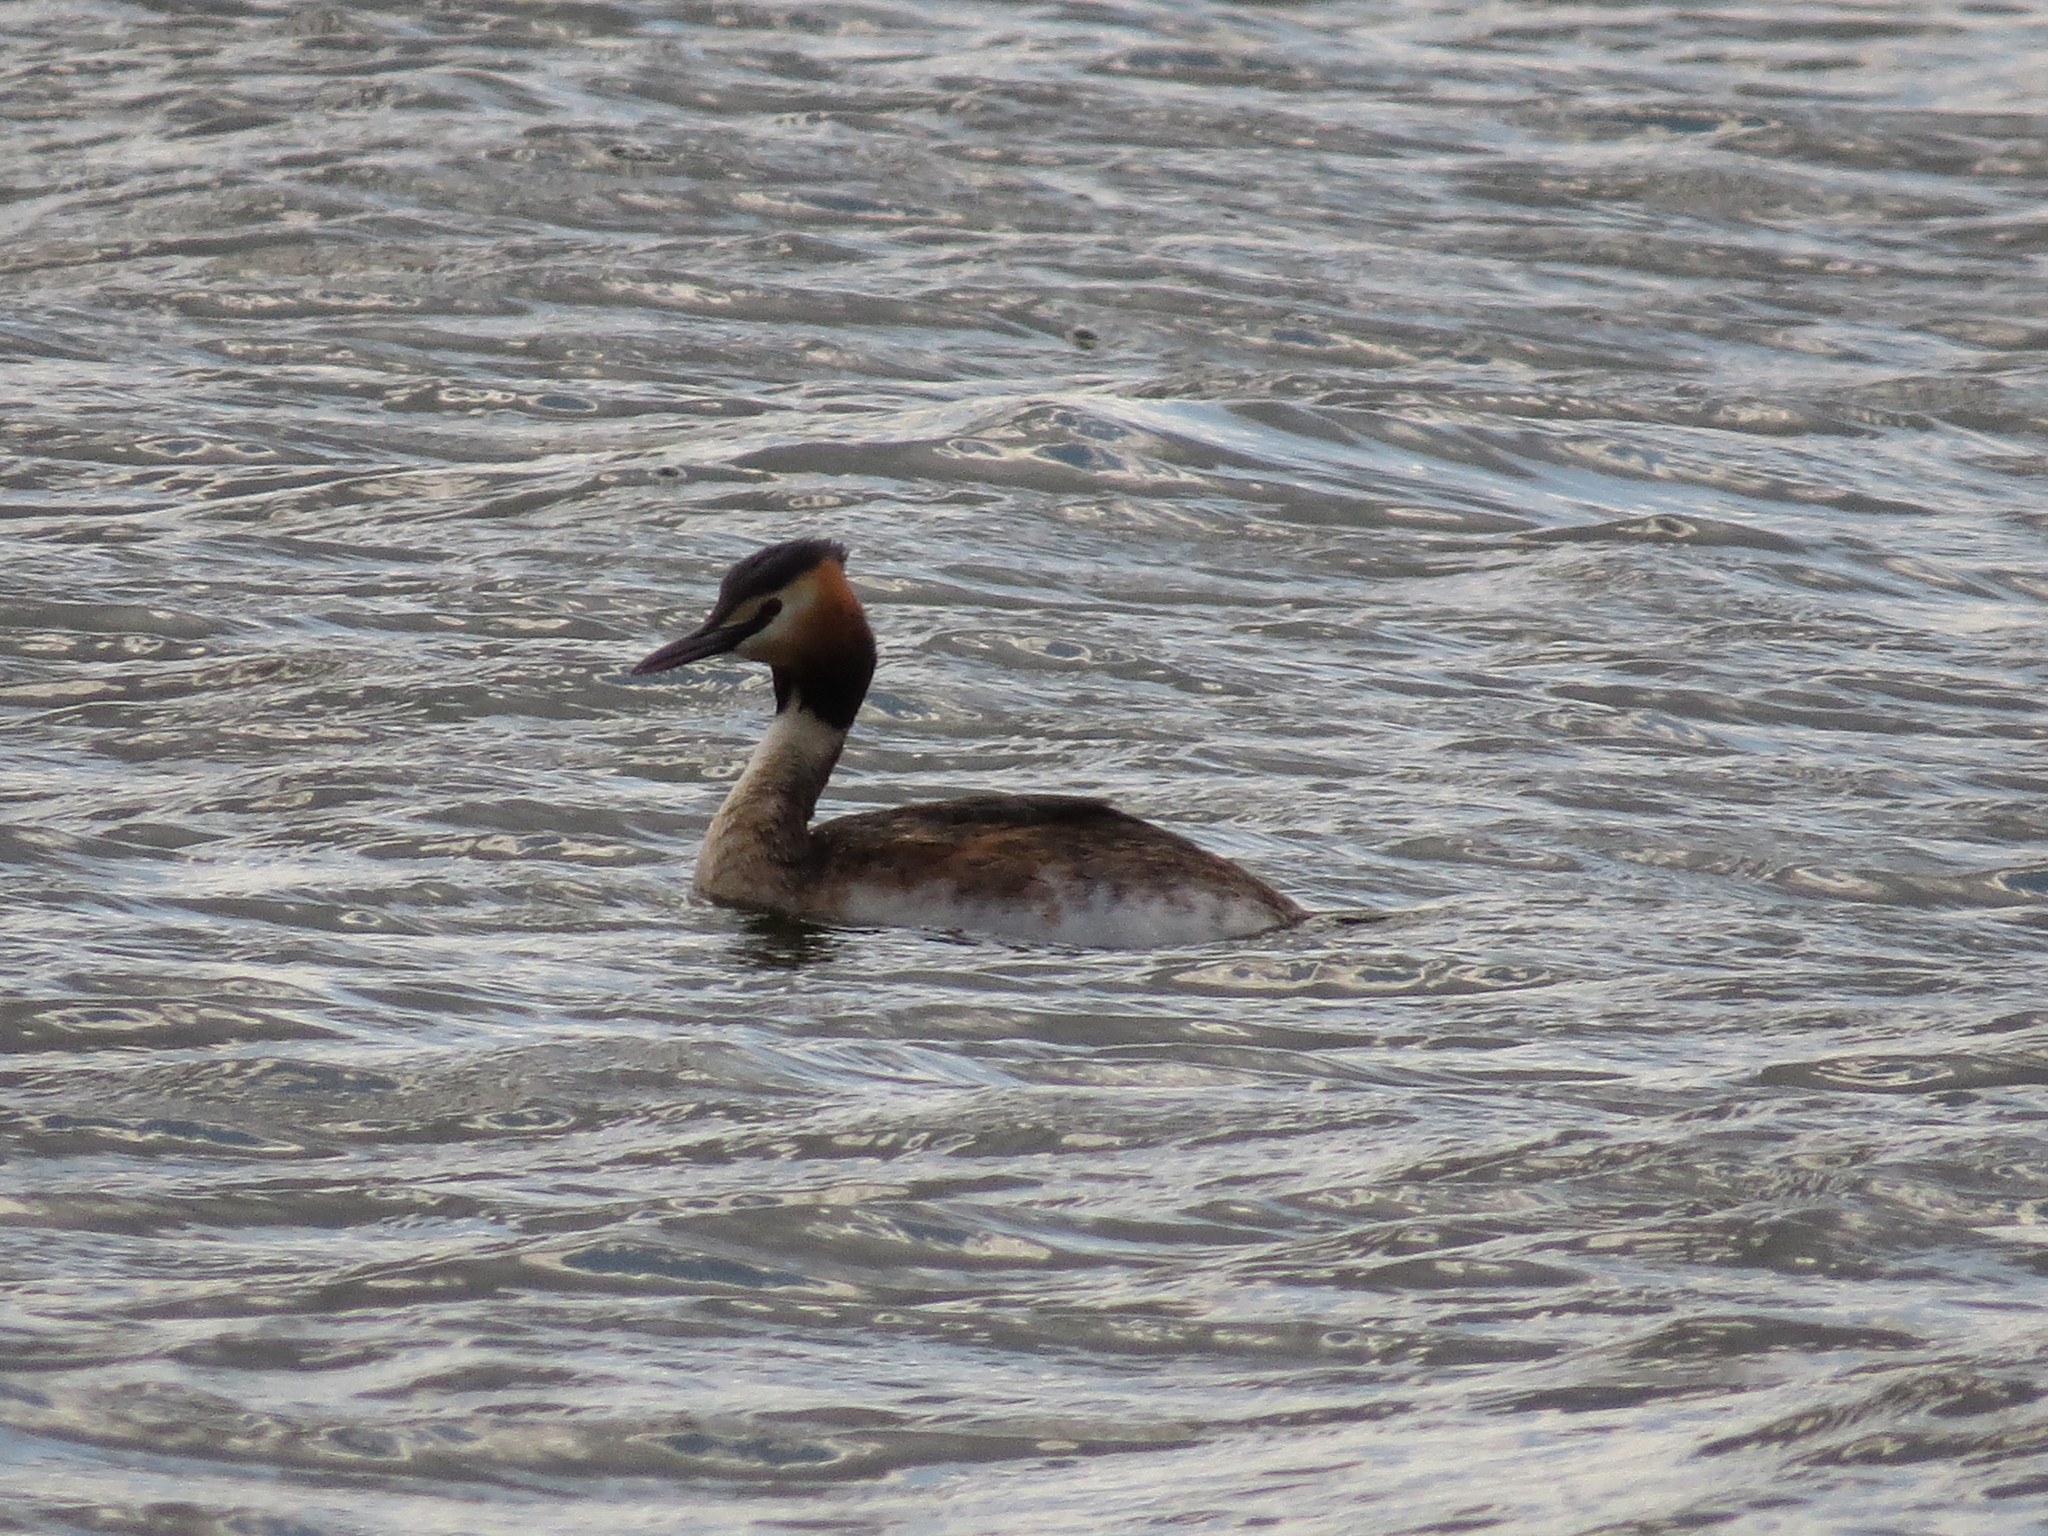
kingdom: Animalia
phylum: Chordata
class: Aves
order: Podicipediformes
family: Podicipedidae
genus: Podiceps
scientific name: Podiceps cristatus
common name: Great crested grebe
